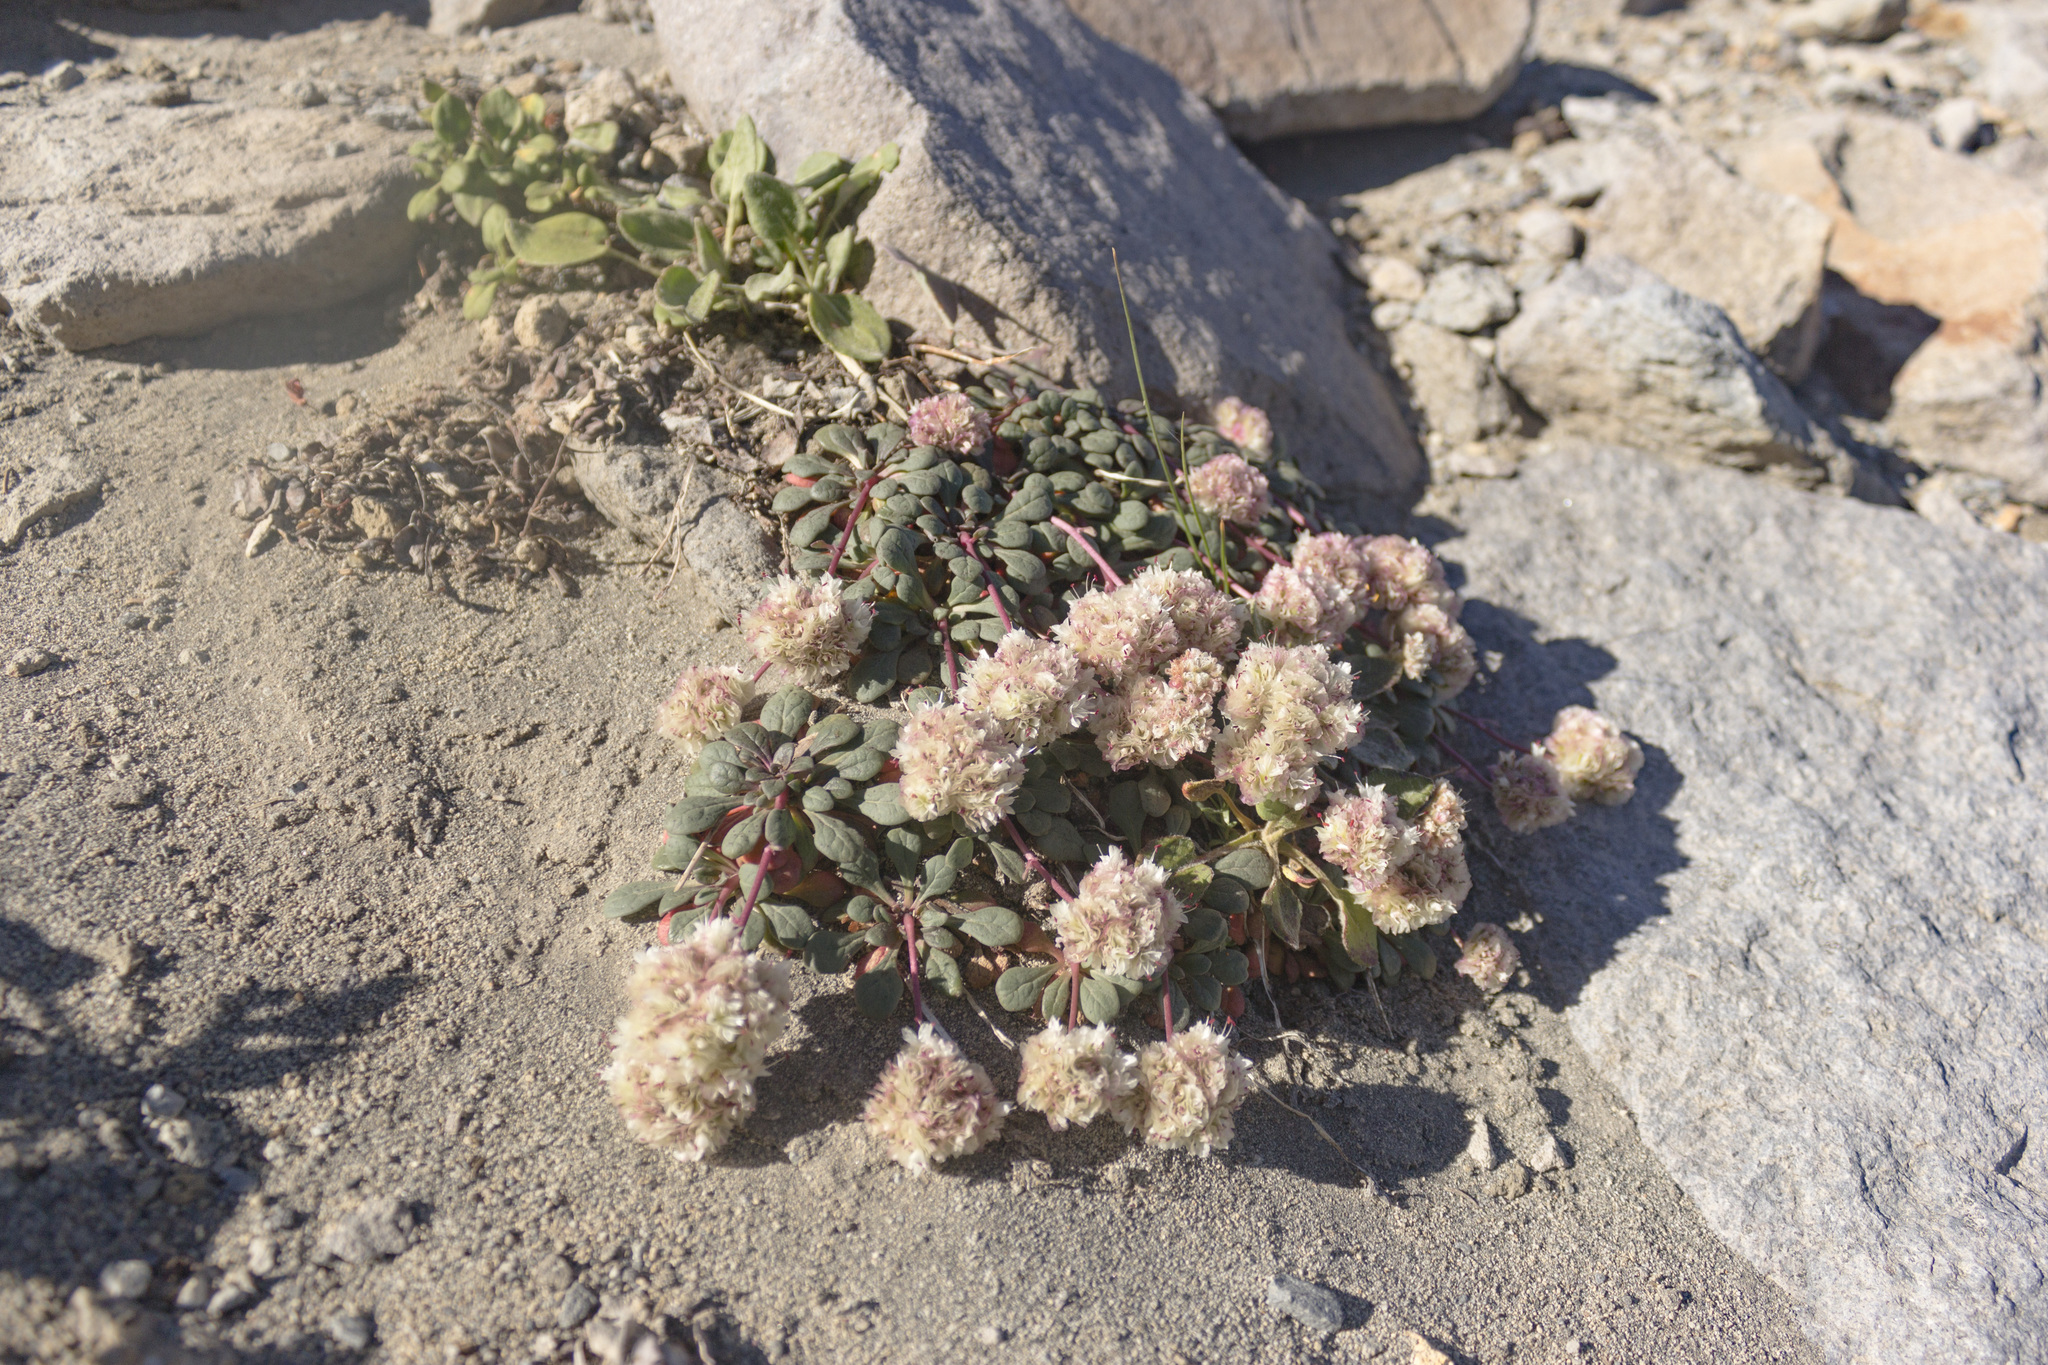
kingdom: Plantae
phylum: Tracheophyta
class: Magnoliopsida
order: Caryophyllales
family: Montiaceae
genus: Calyptridium
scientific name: Calyptridium umbellatum
